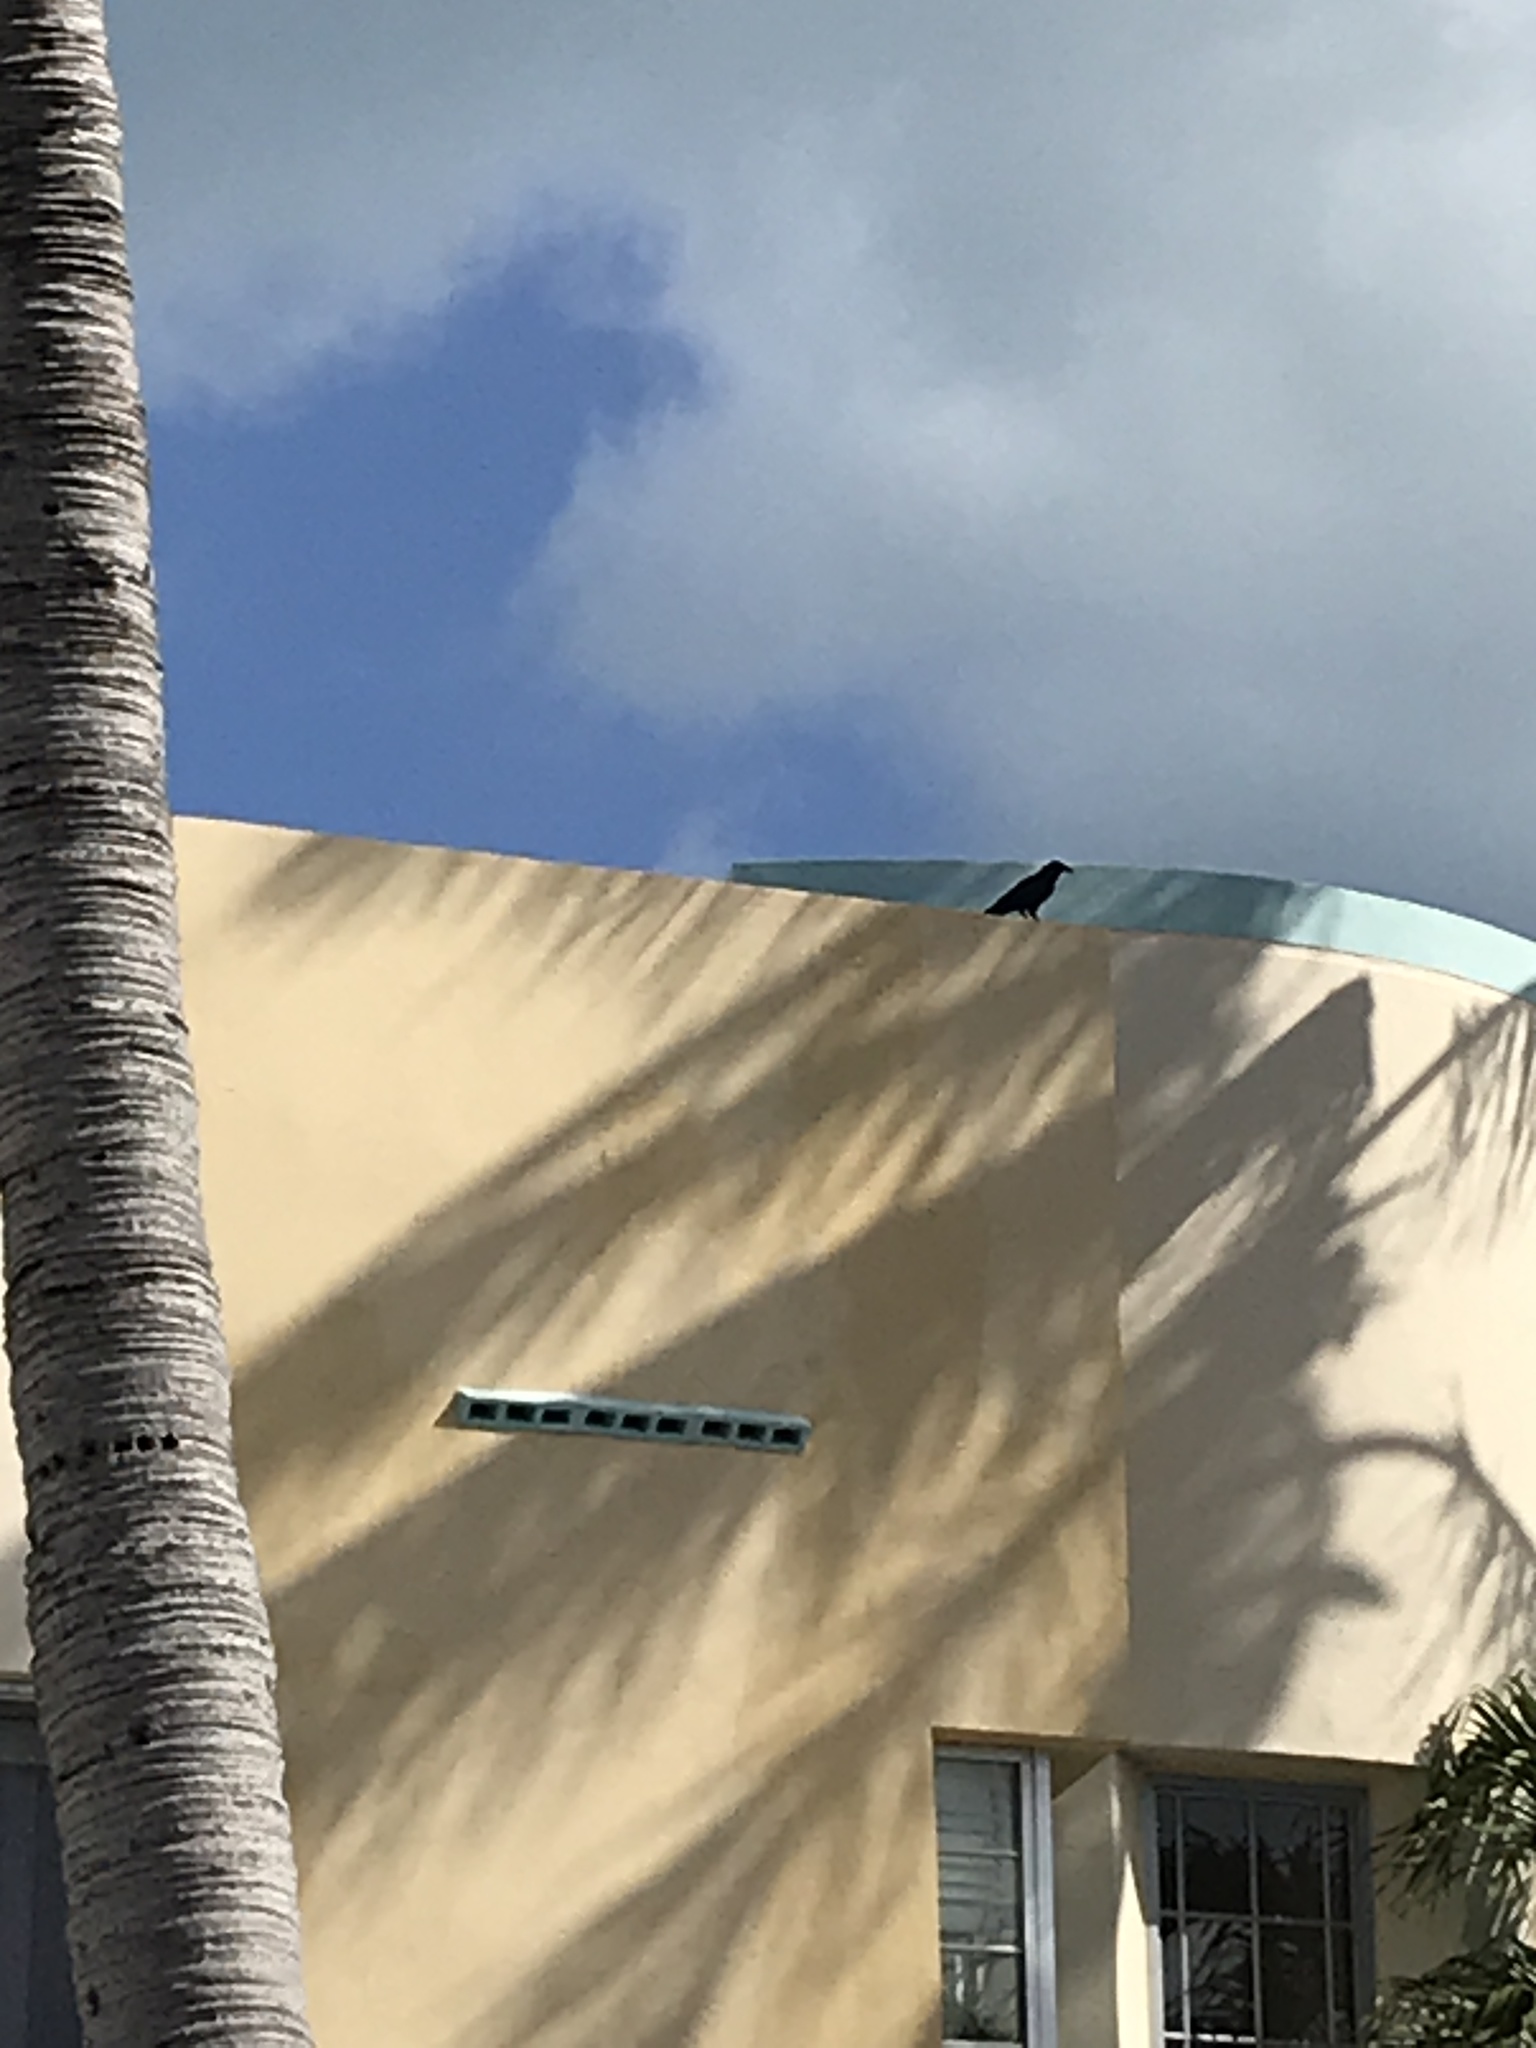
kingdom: Animalia
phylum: Chordata
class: Aves
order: Passeriformes
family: Corvidae
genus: Corvus
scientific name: Corvus ossifragus
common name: Fish crow
